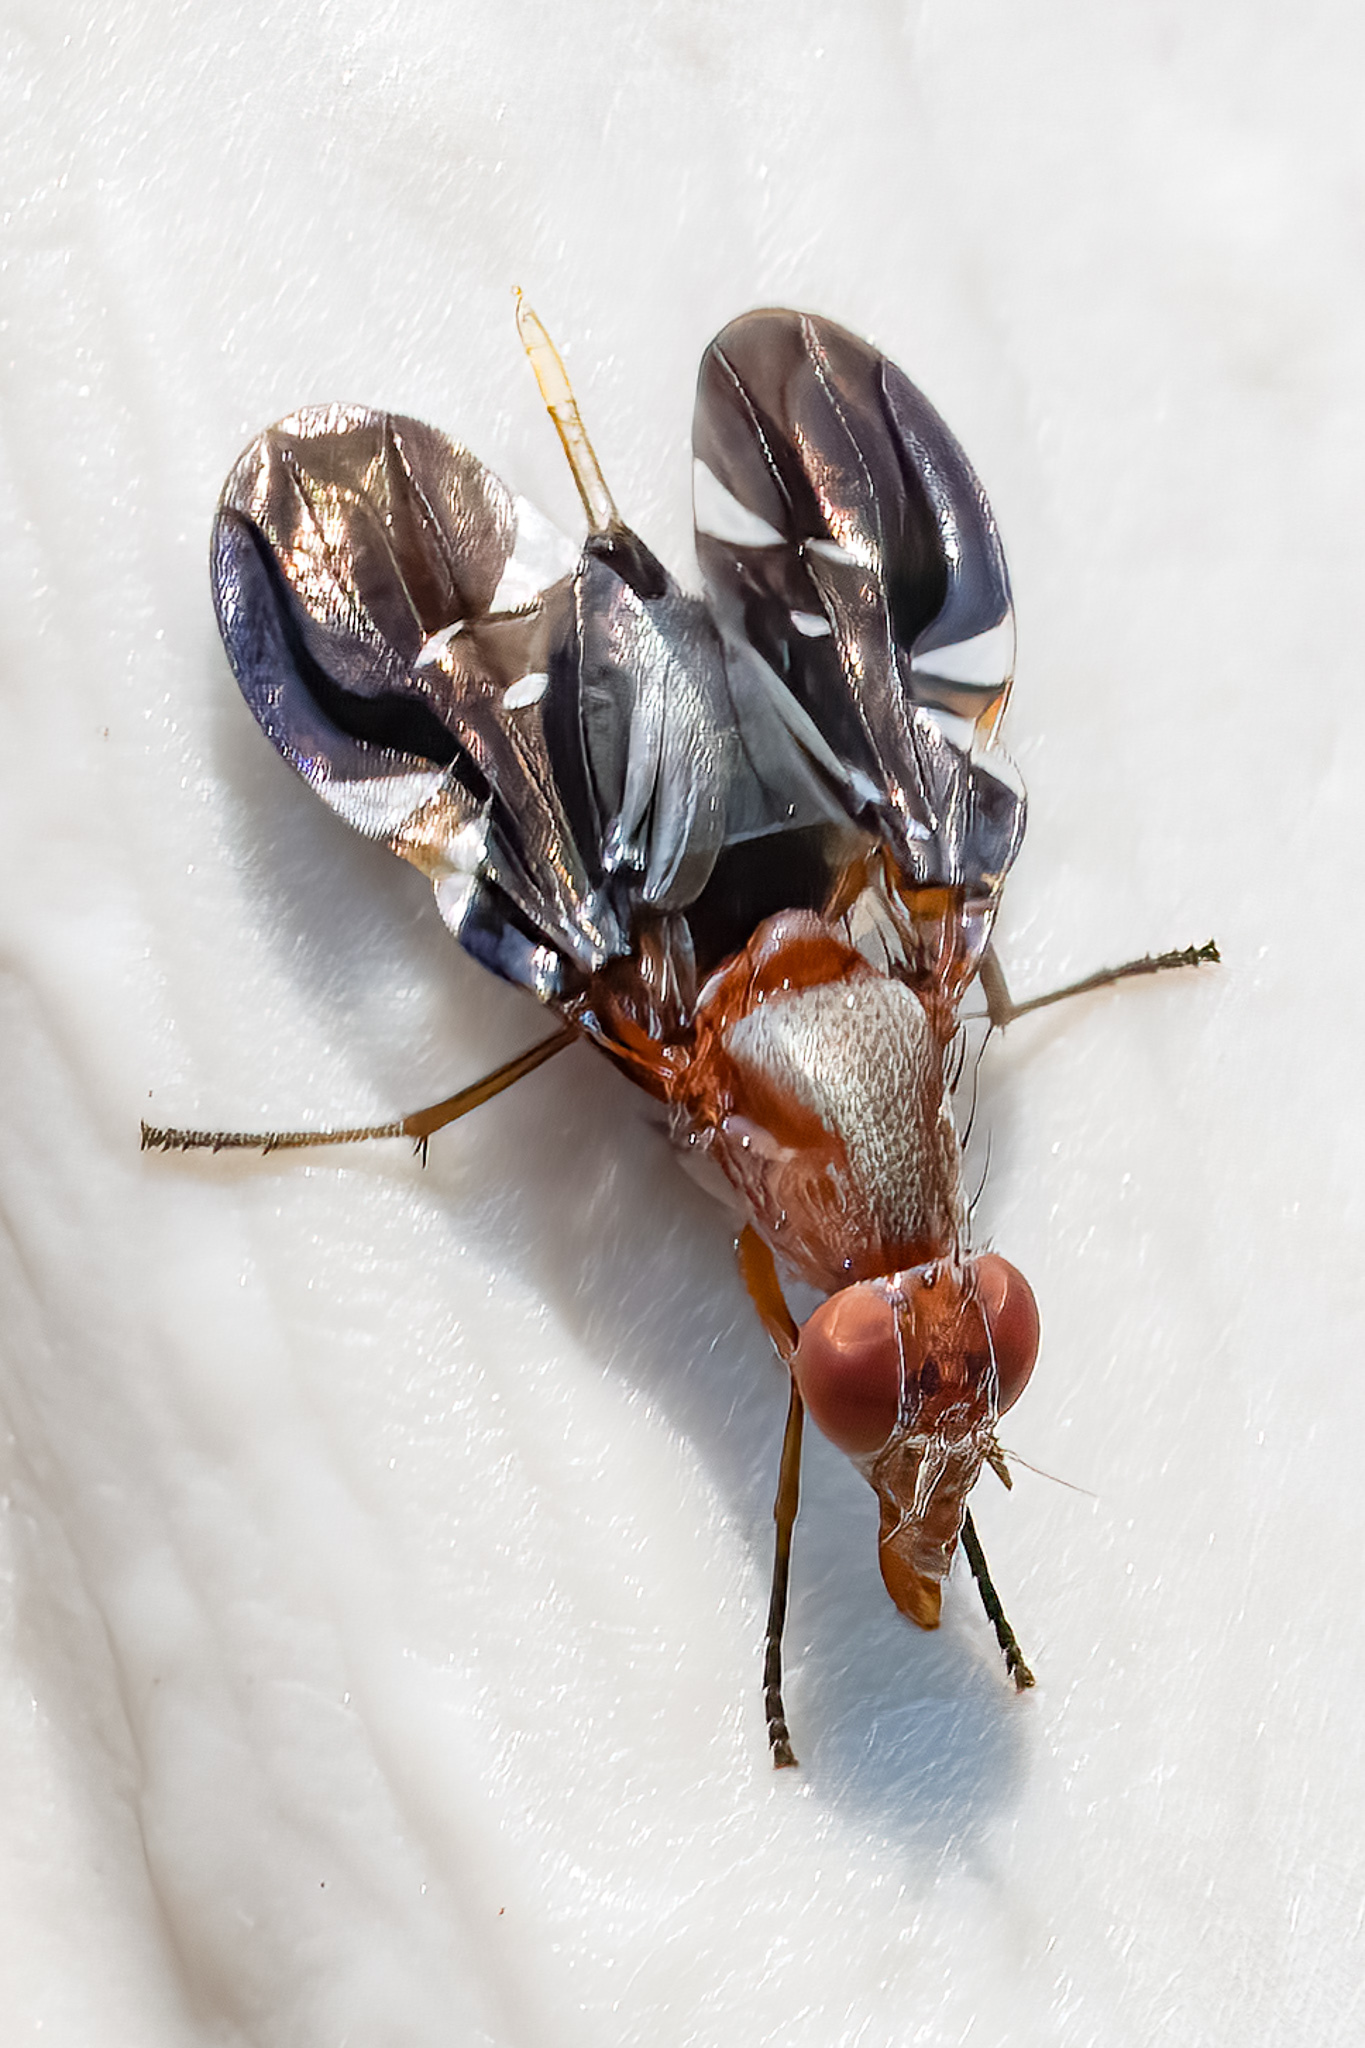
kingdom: Animalia
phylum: Arthropoda
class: Insecta
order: Diptera
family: Ulidiidae
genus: Delphinia
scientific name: Delphinia picta
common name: Common picture-winged fly
